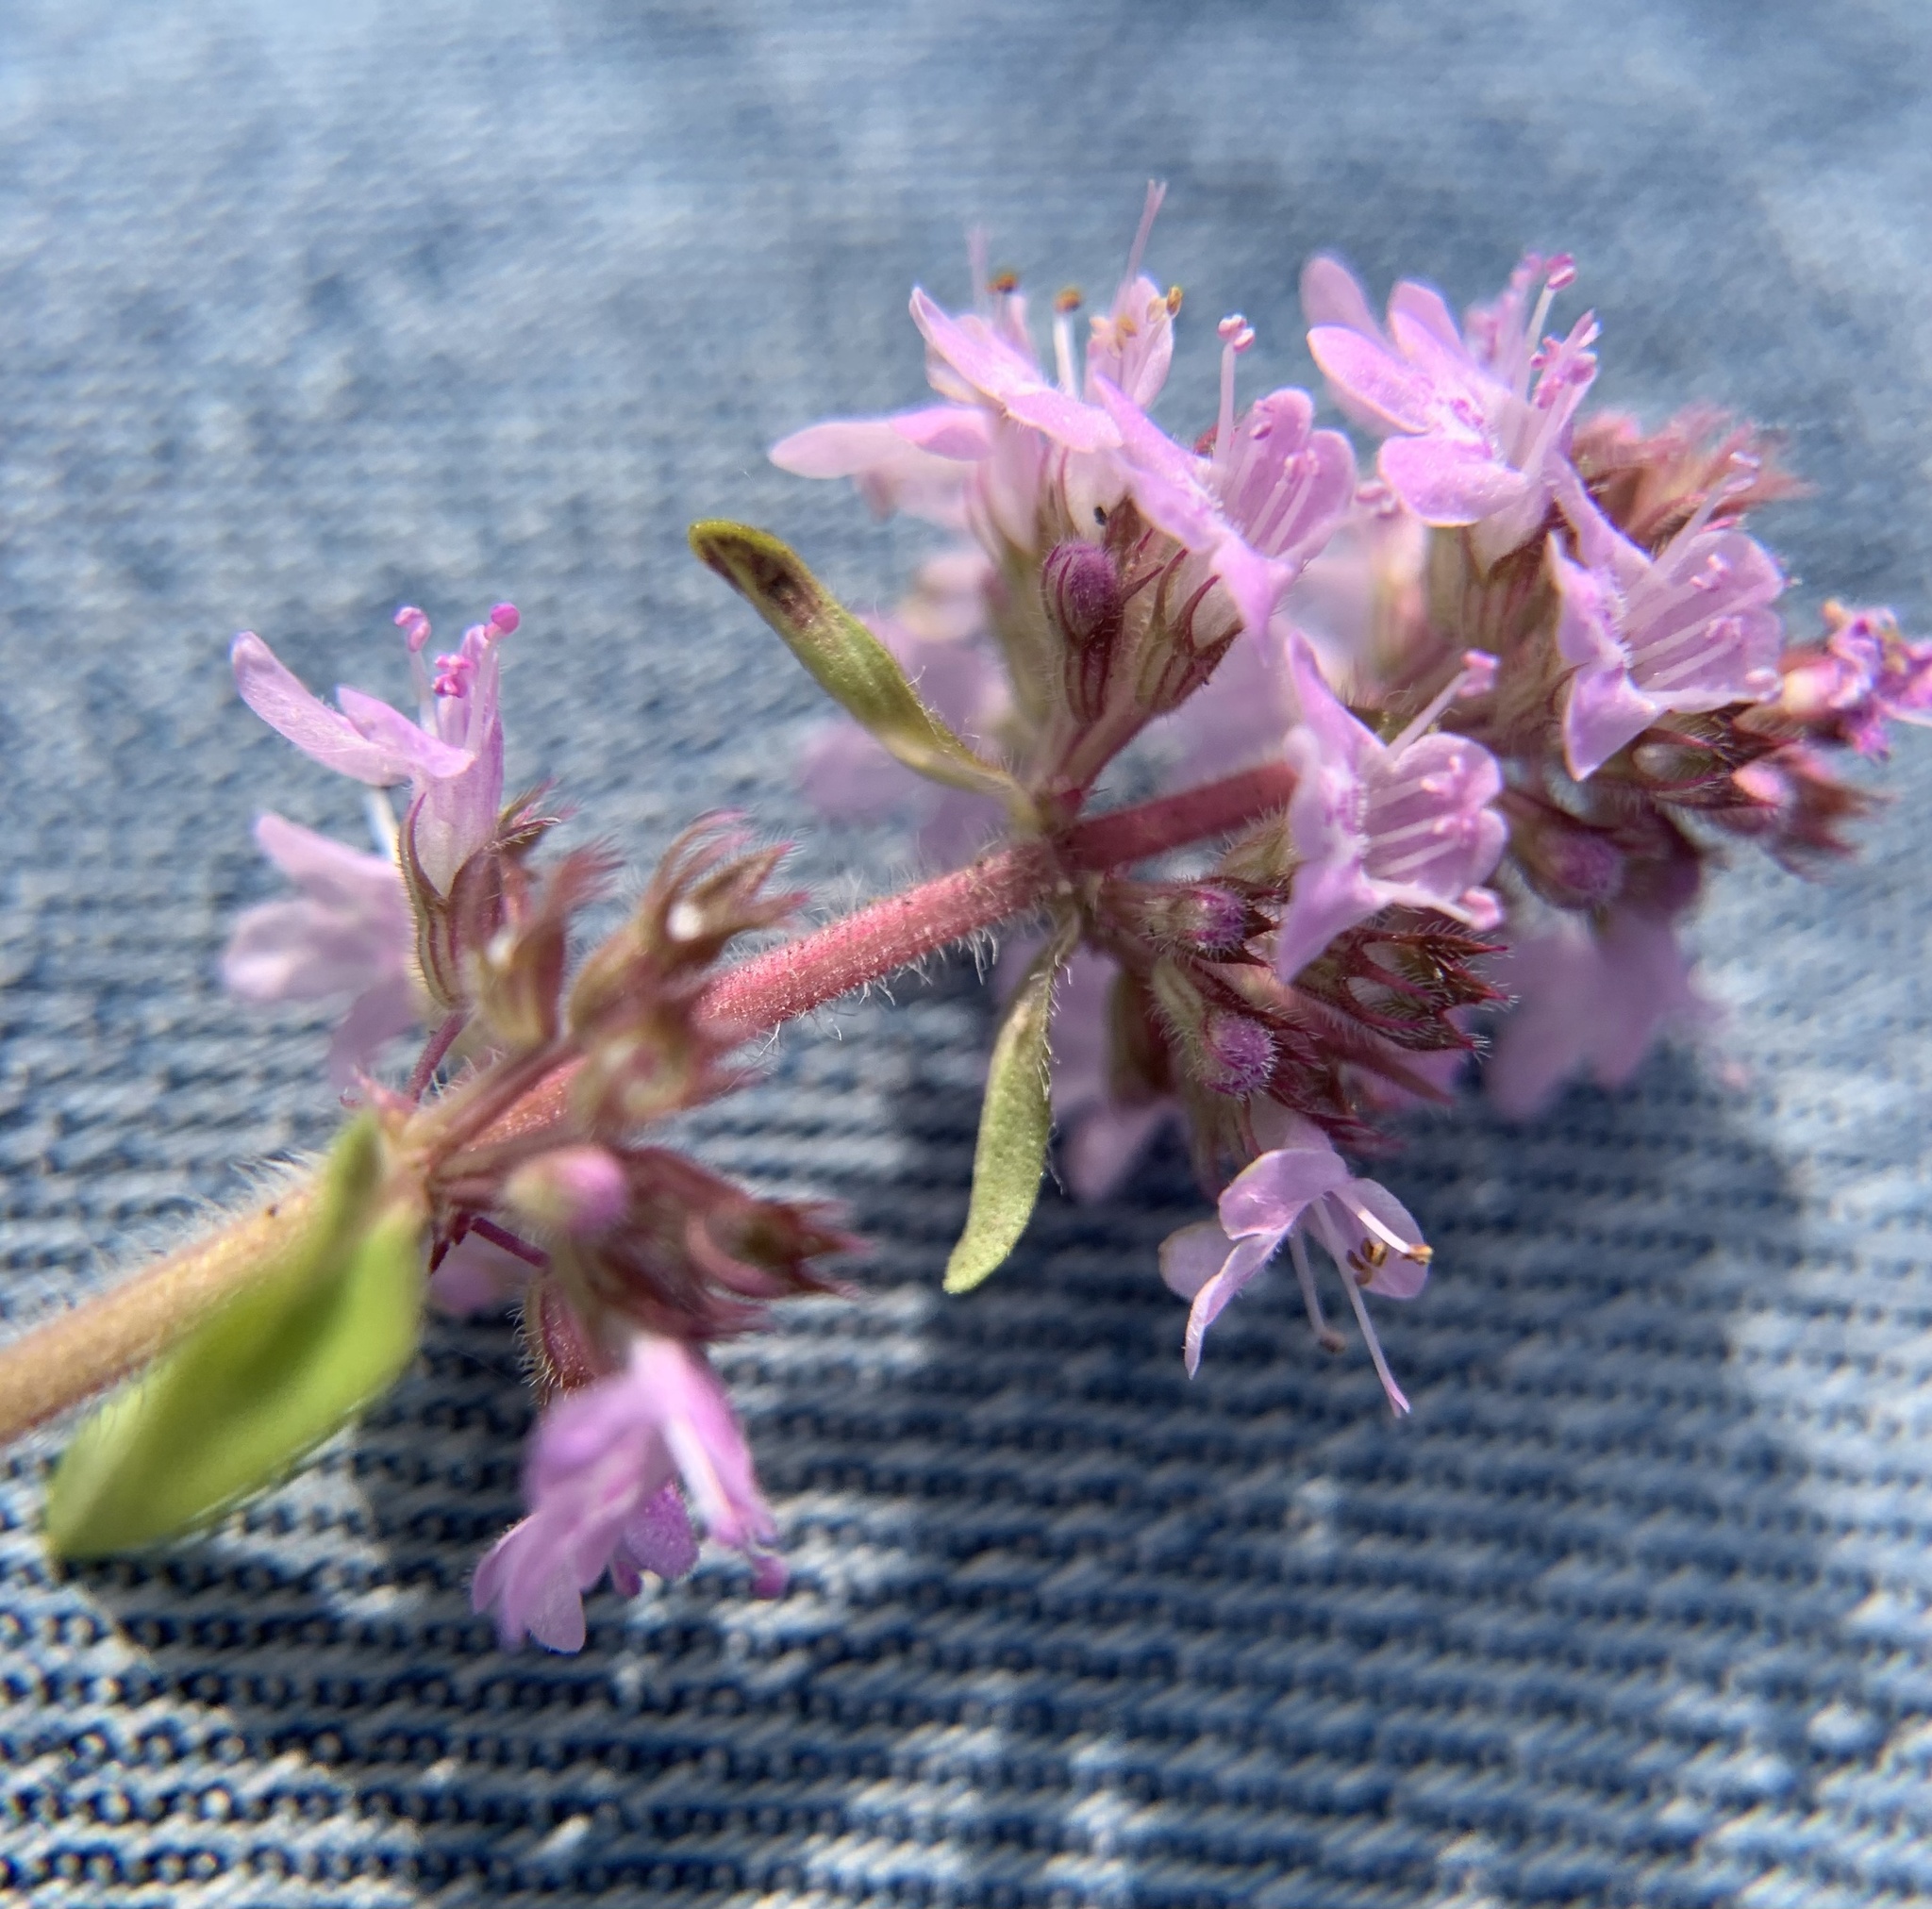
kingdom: Plantae
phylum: Tracheophyta
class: Magnoliopsida
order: Lamiales
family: Lamiaceae
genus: Thymus
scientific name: Thymus pannonicus
